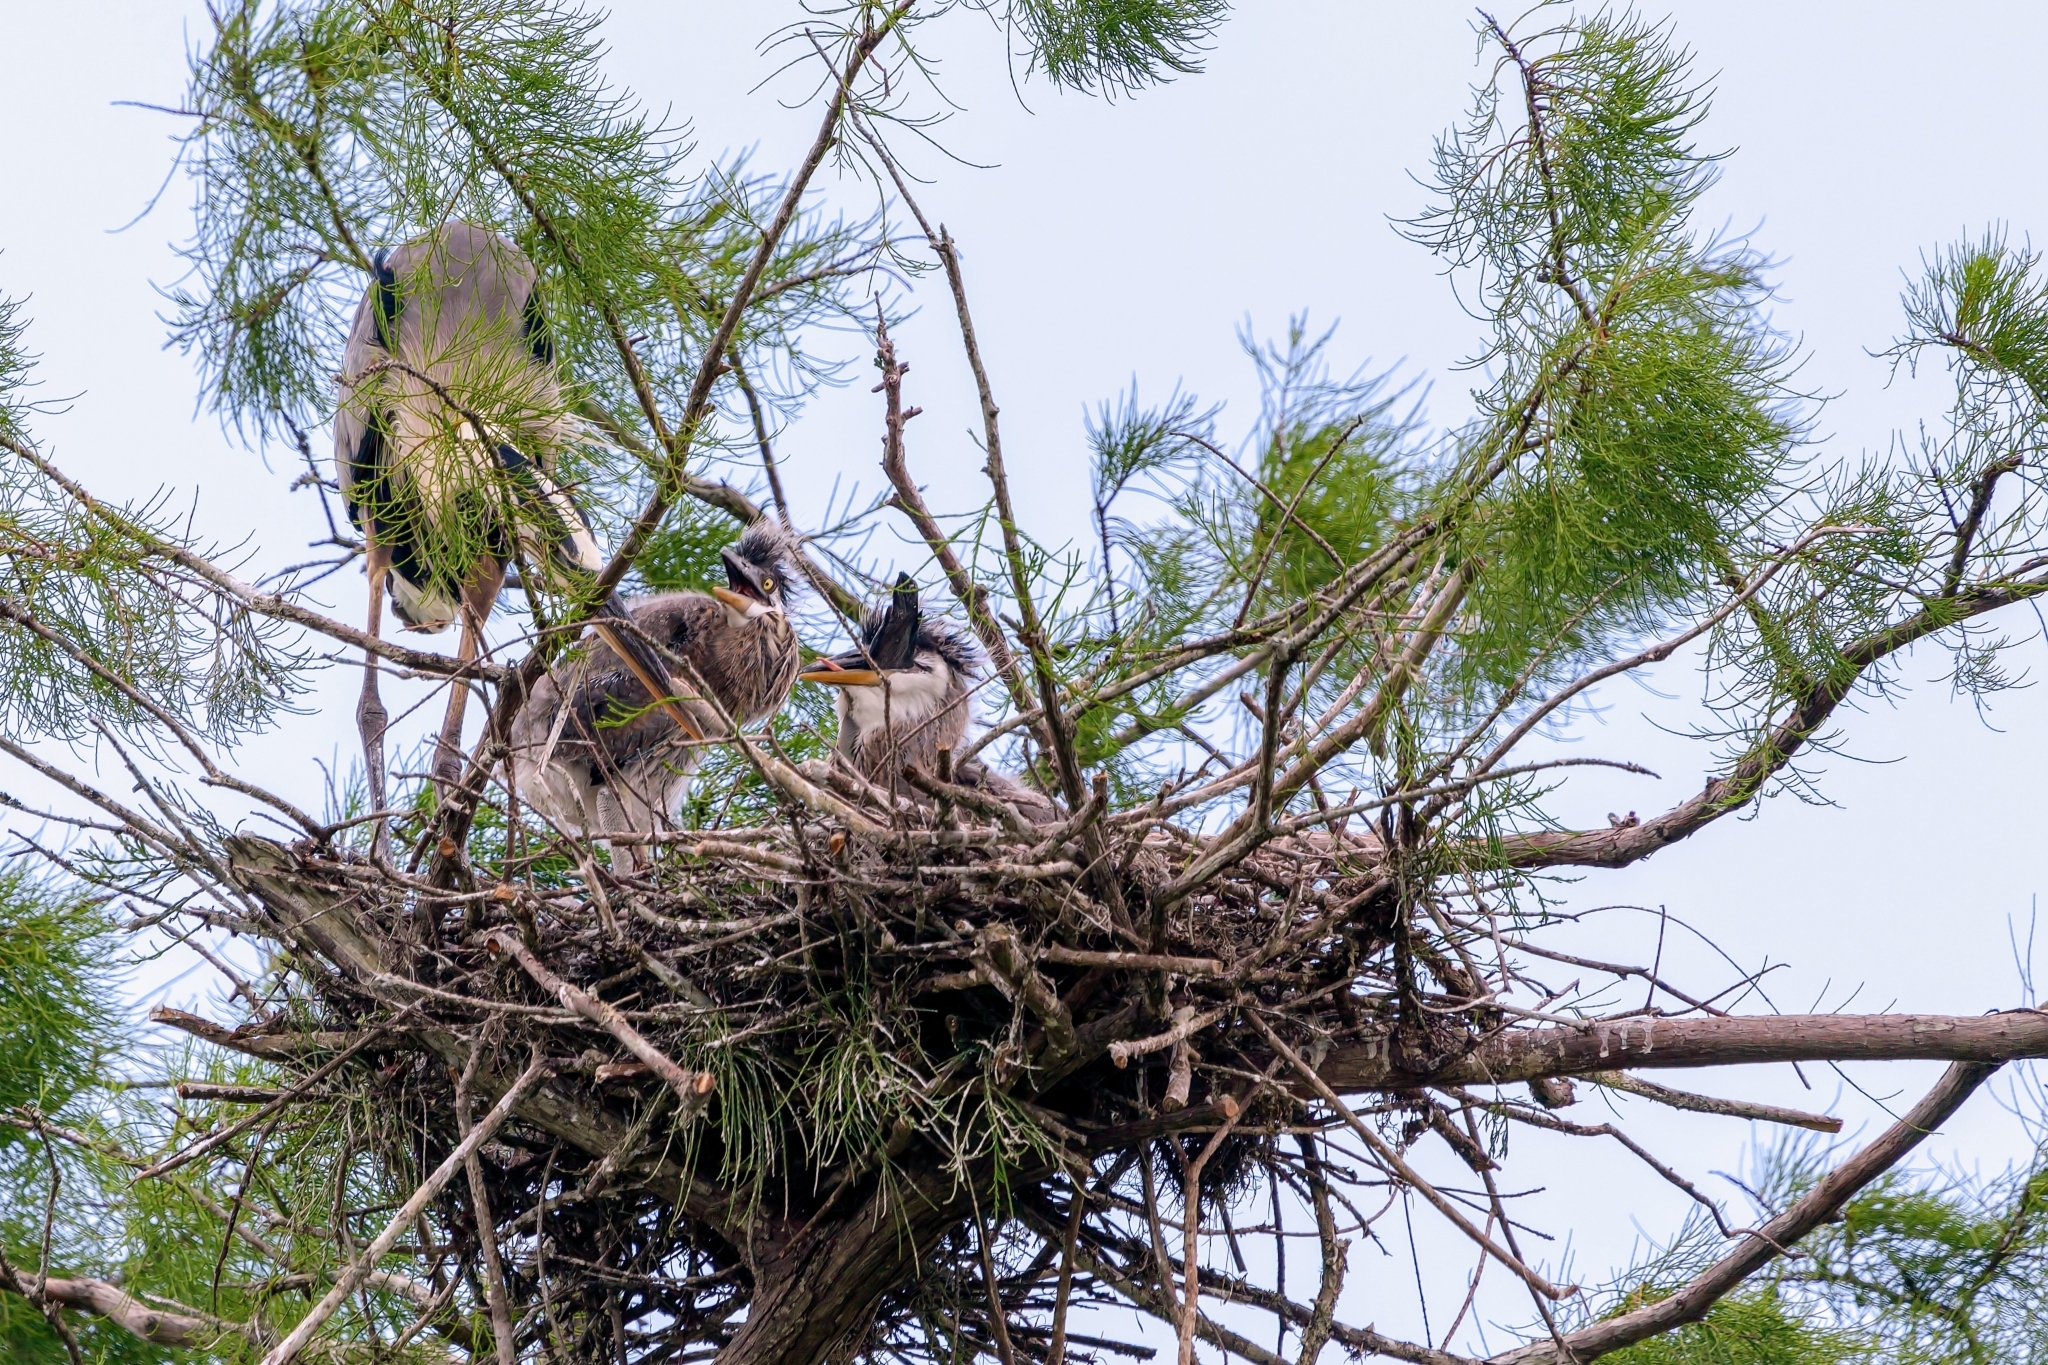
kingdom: Animalia
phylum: Chordata
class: Aves
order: Pelecaniformes
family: Ardeidae
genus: Ardea
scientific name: Ardea herodias
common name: Great blue heron
